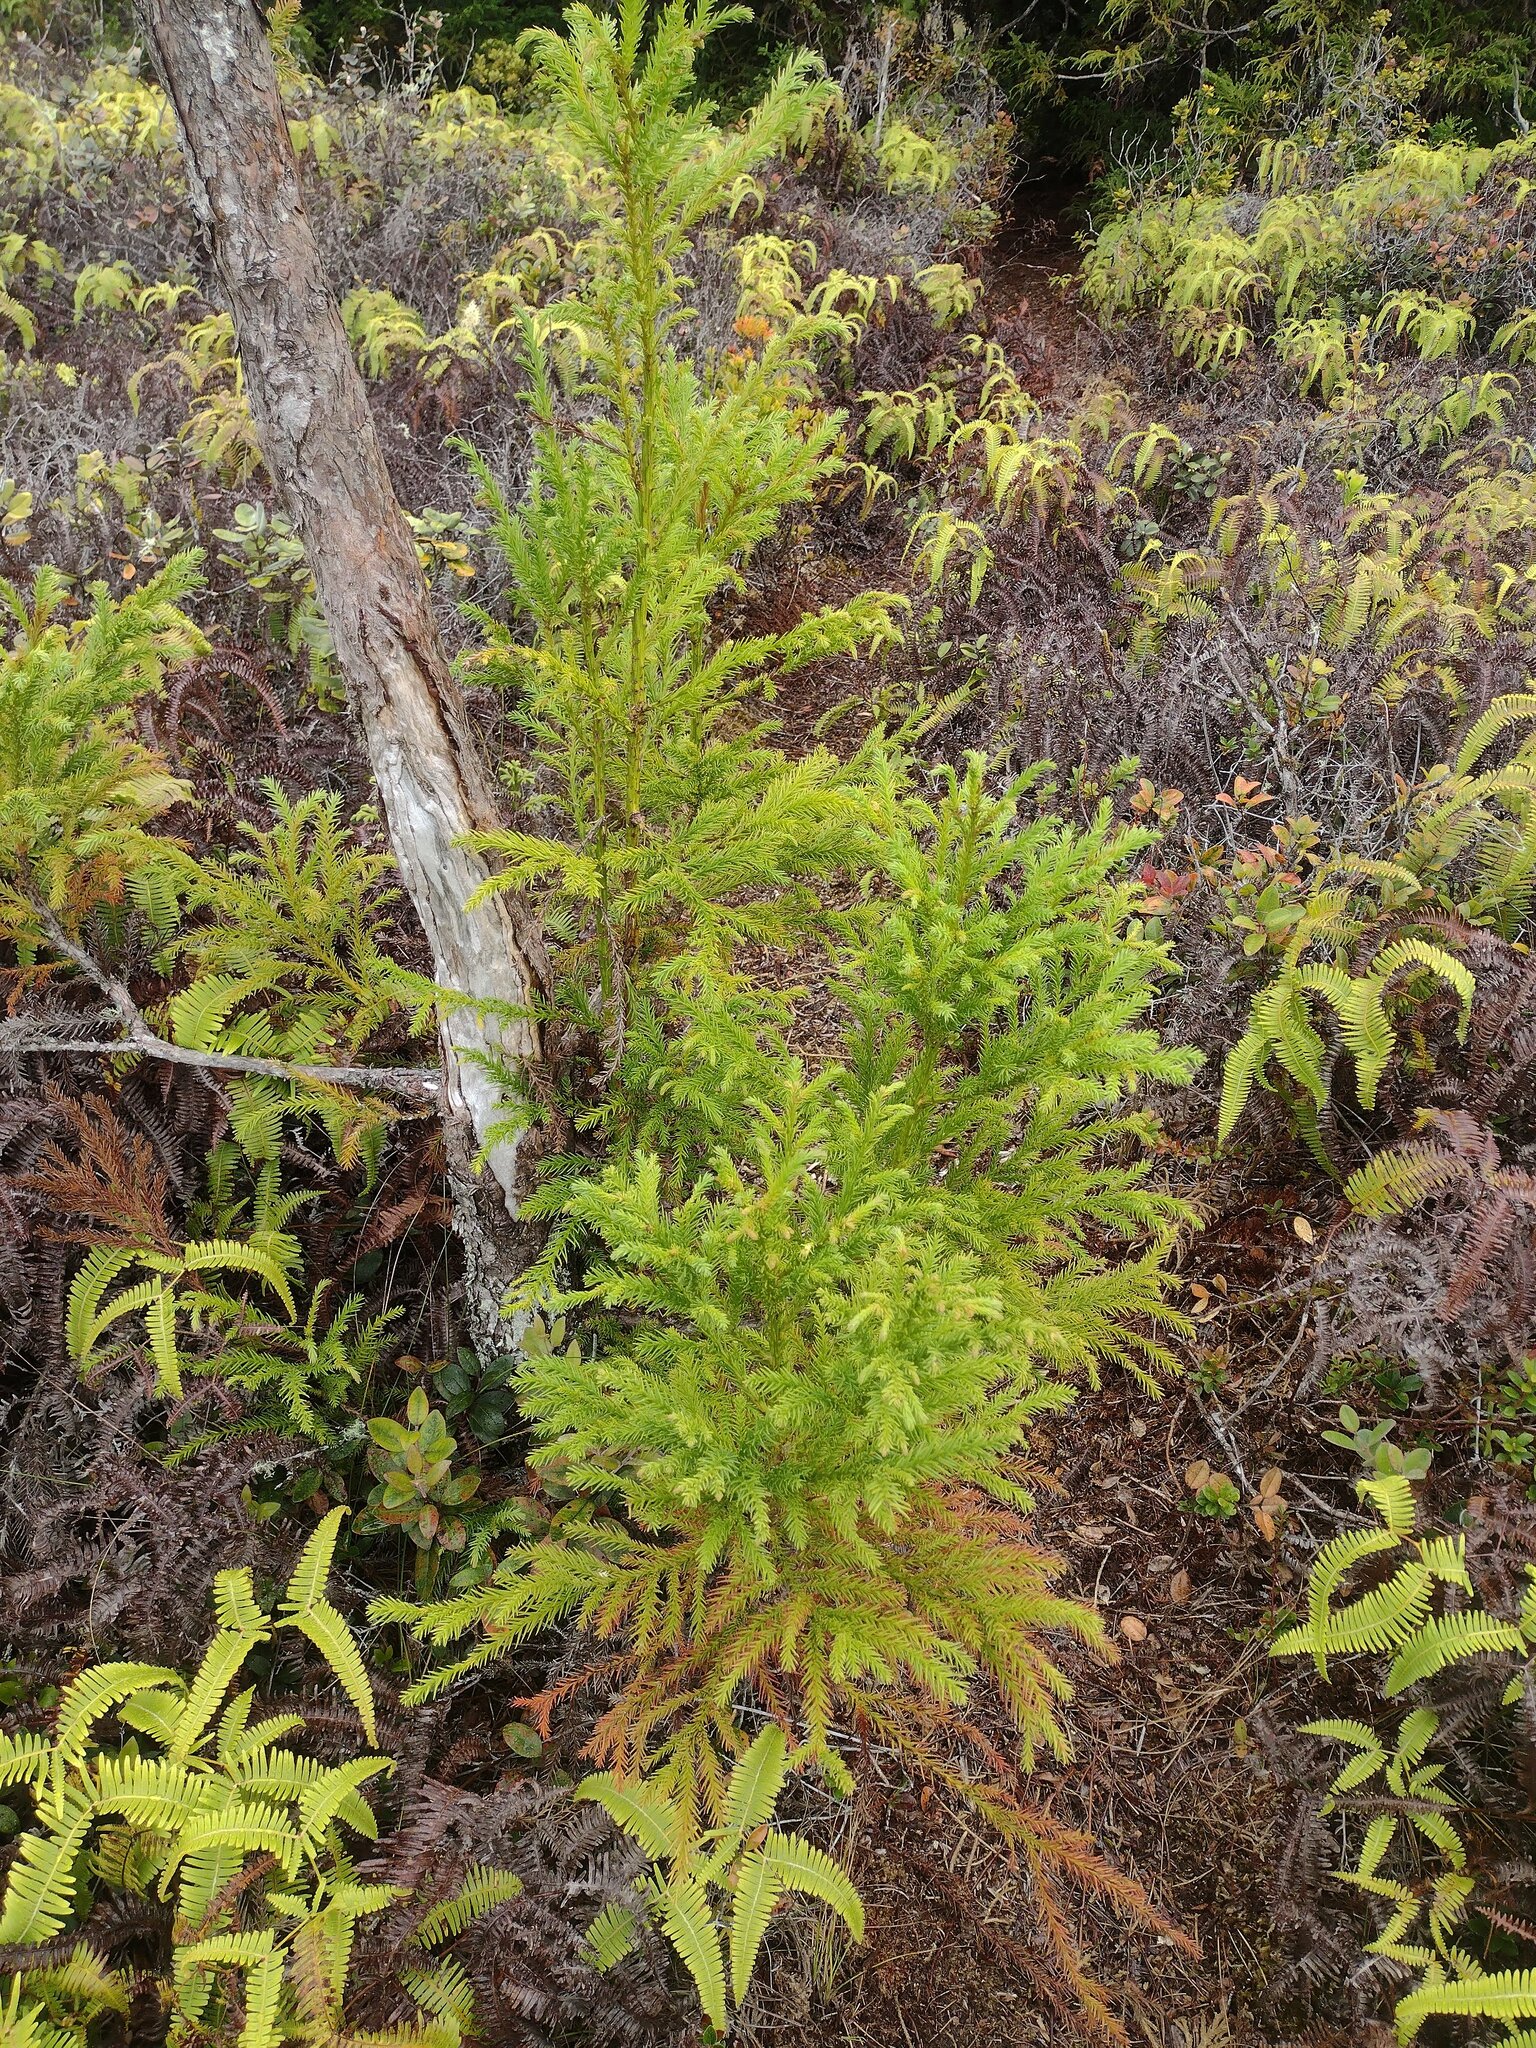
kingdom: Plantae
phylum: Tracheophyta
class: Pinopsida
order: Pinales
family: Cupressaceae
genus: Cryptomeria
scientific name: Cryptomeria japonica
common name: Japanese cedar
